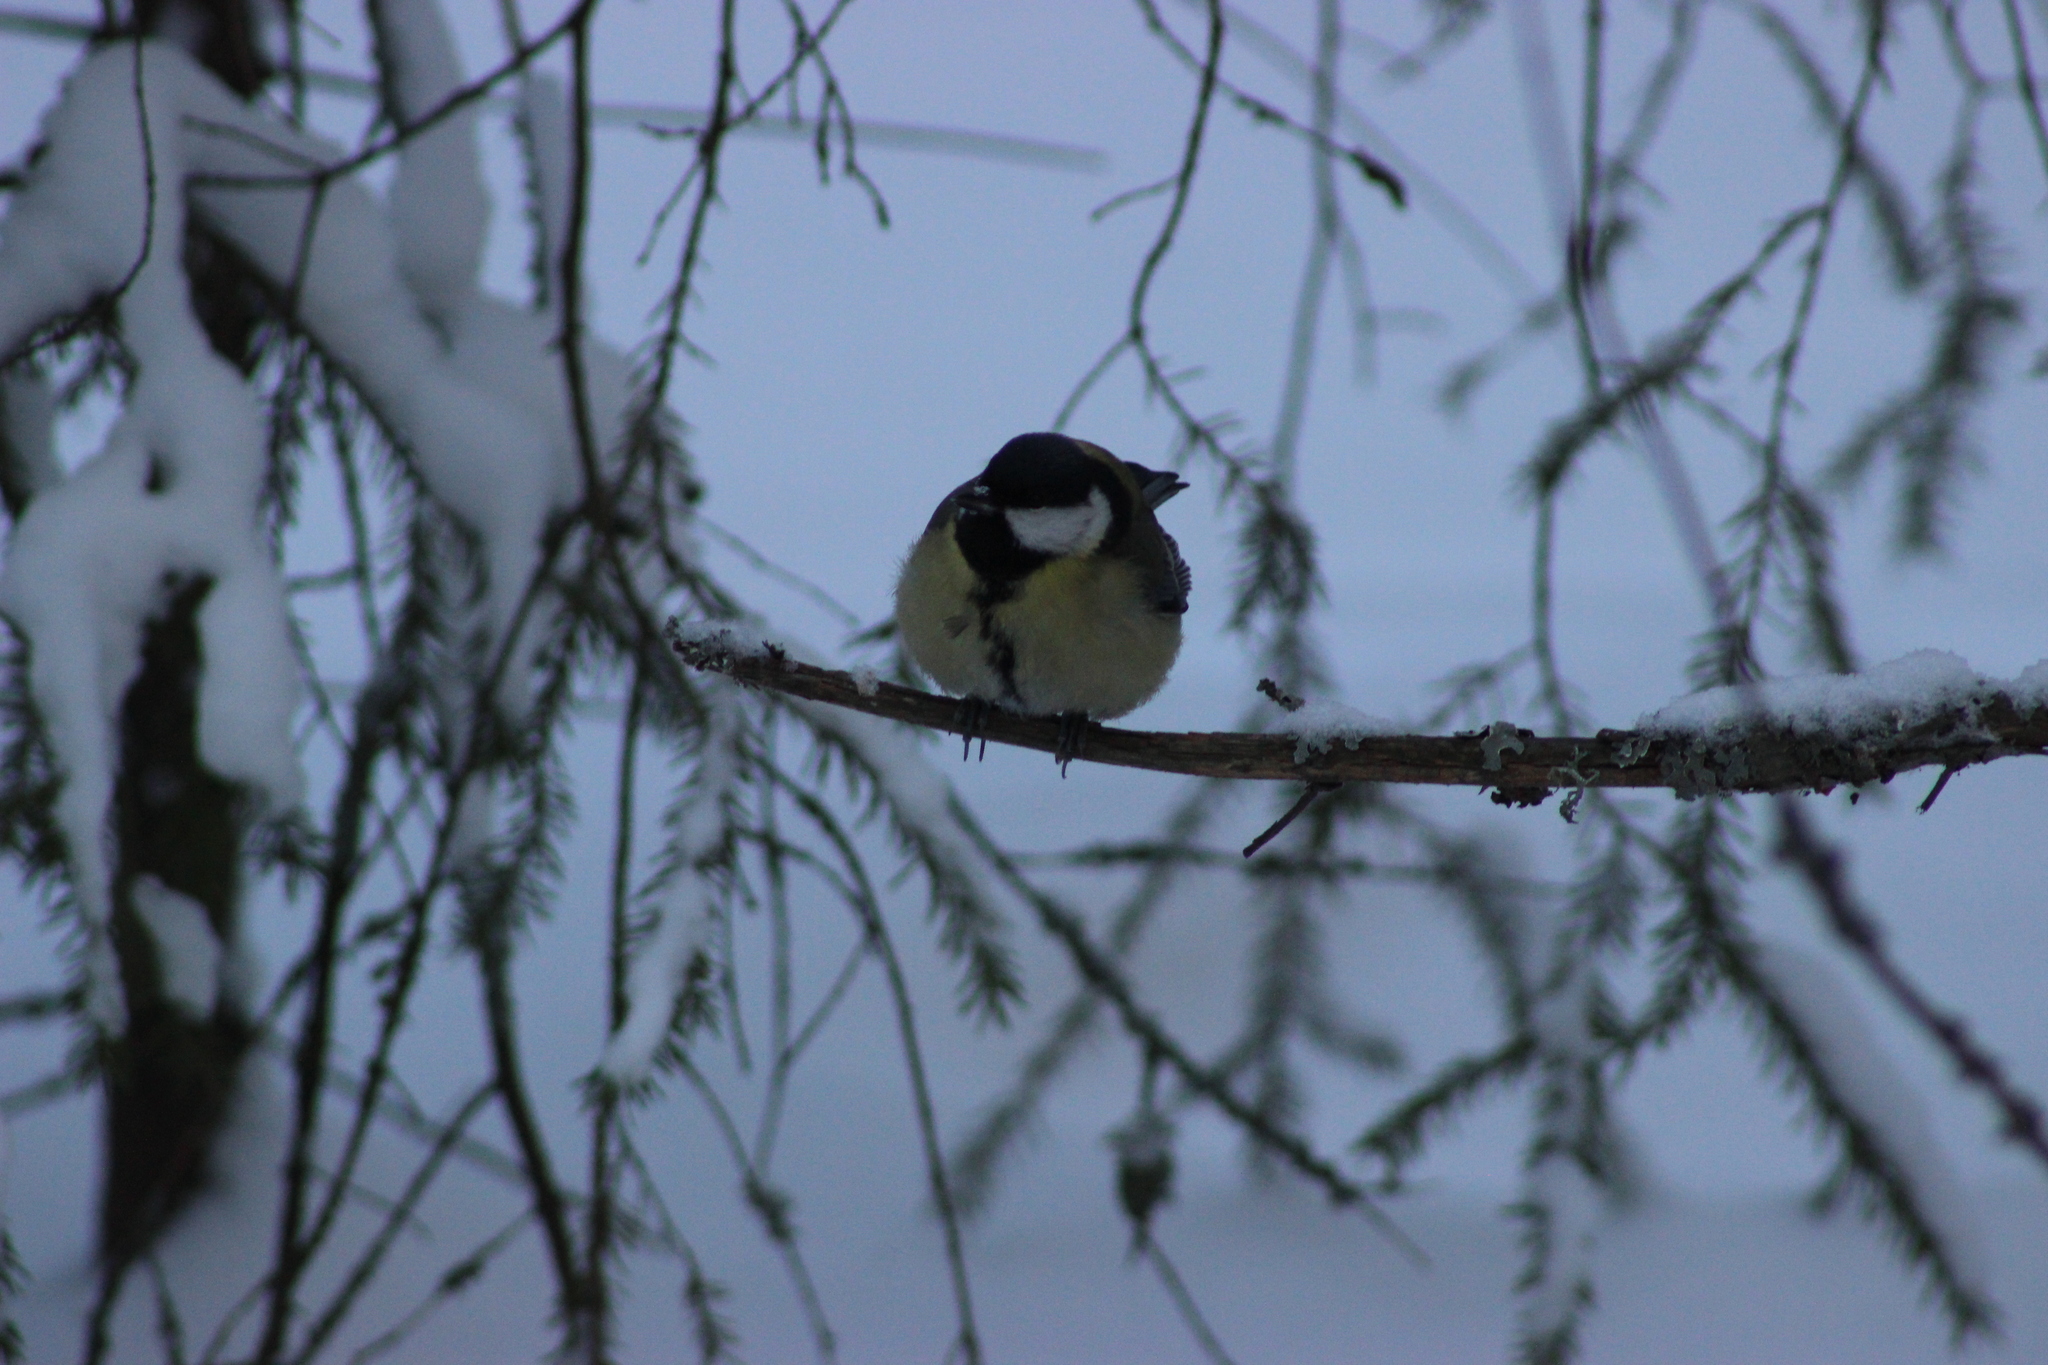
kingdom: Animalia
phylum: Chordata
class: Aves
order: Passeriformes
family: Paridae
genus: Parus
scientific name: Parus major
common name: Great tit
